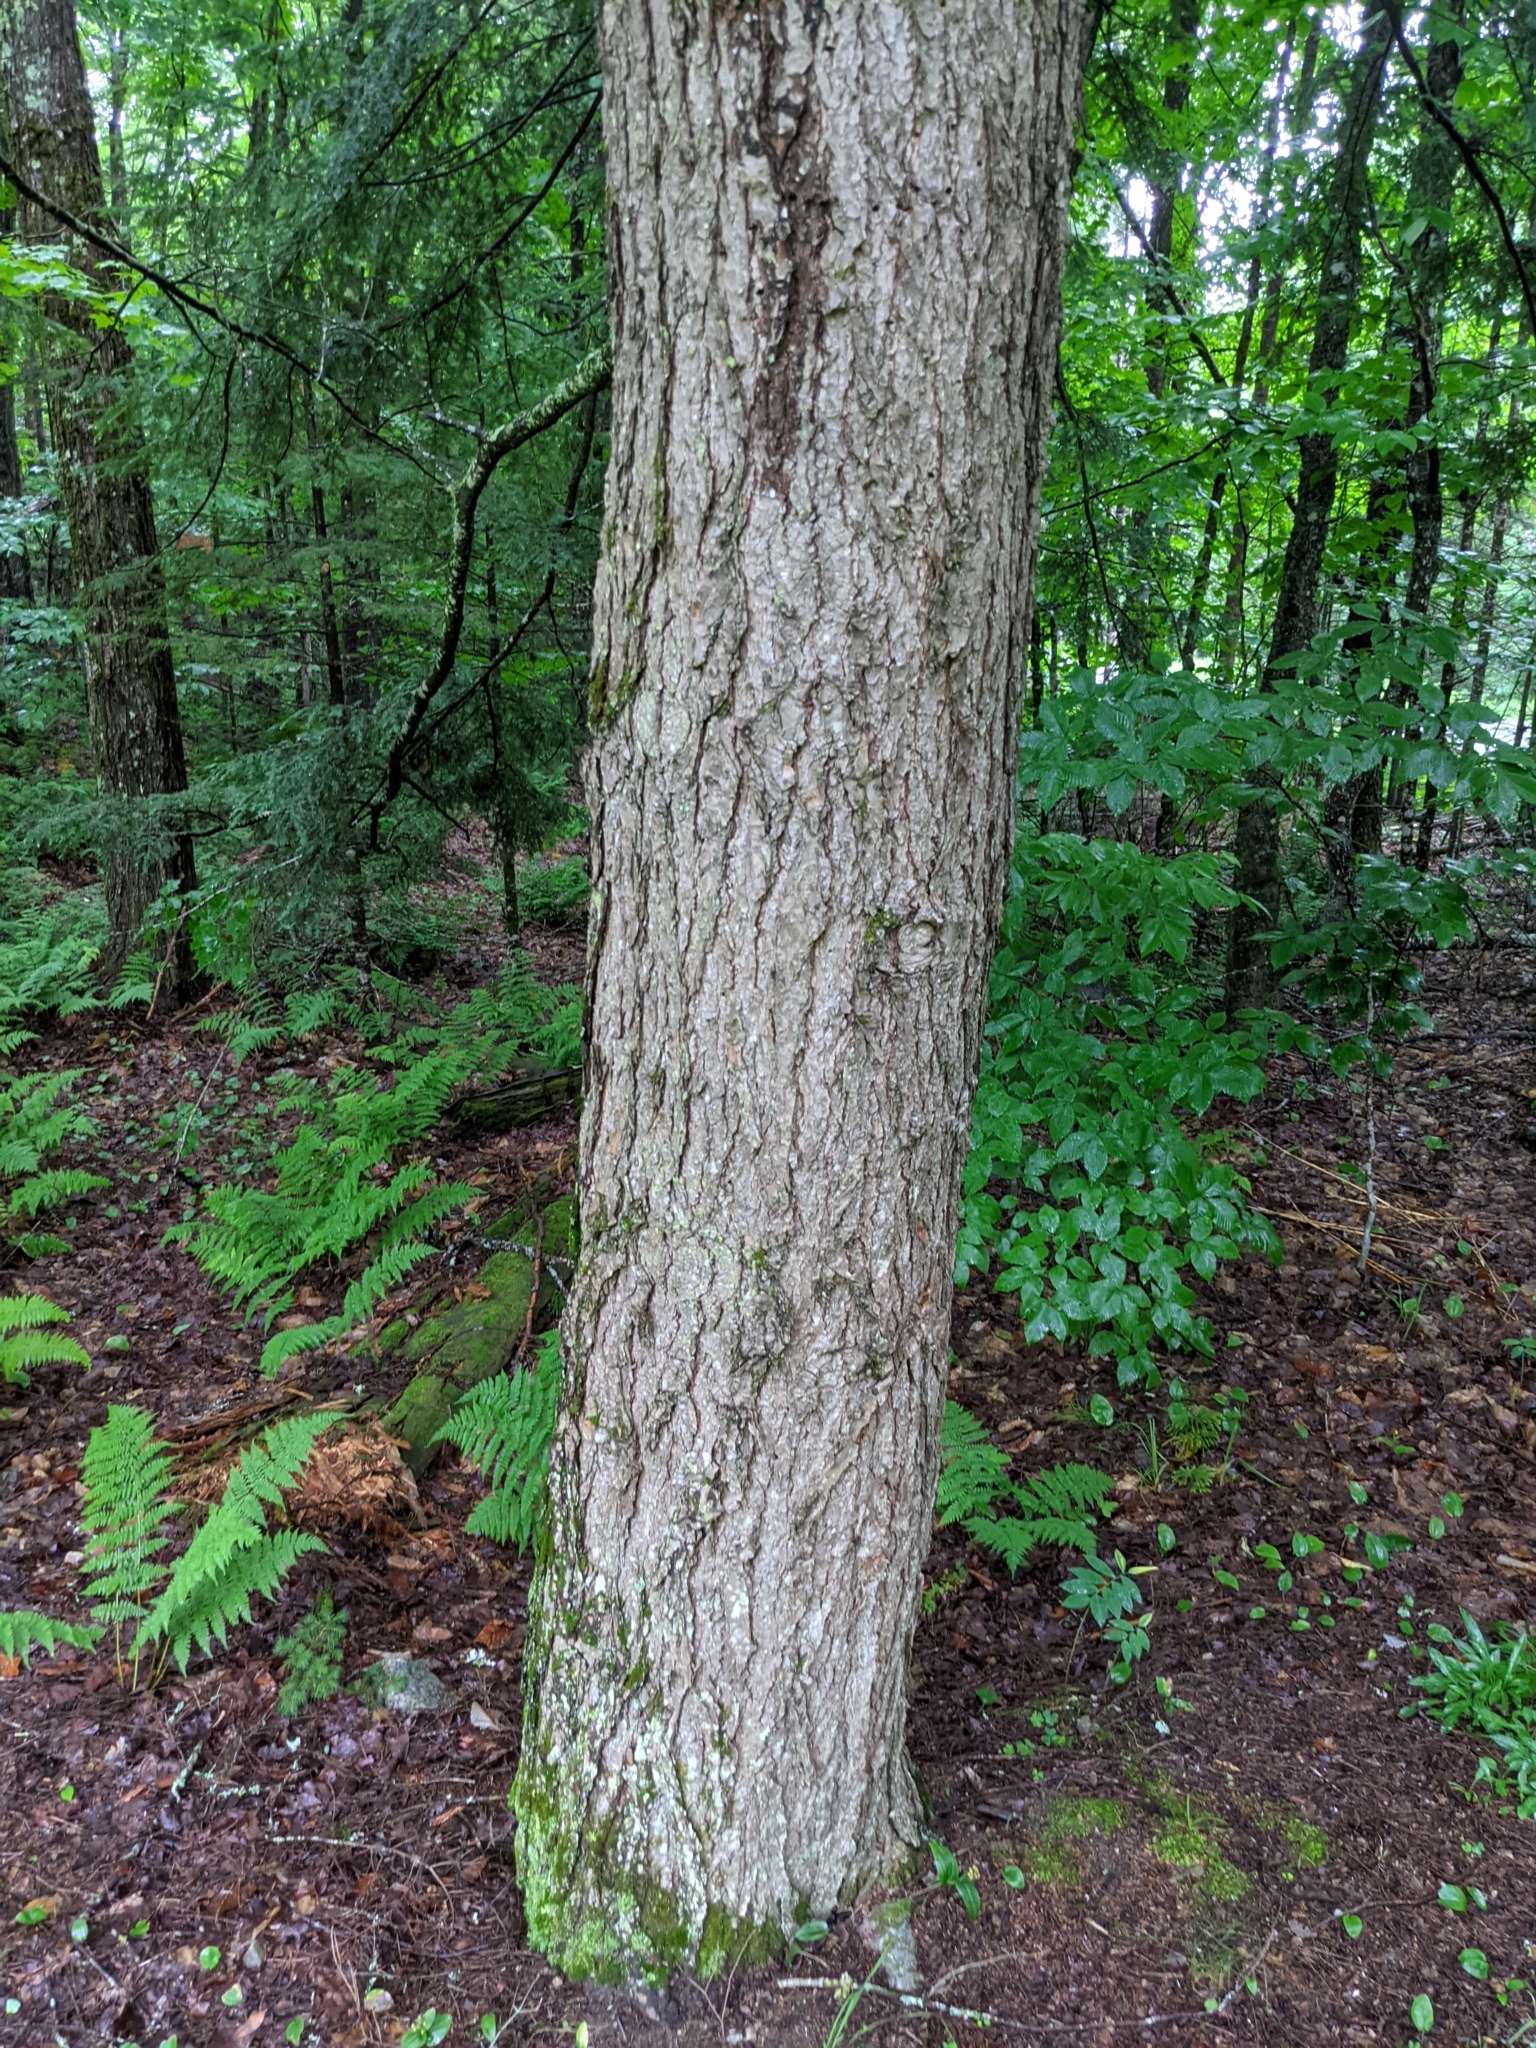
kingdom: Plantae
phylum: Tracheophyta
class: Pinopsida
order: Pinales
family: Pinaceae
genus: Tsuga
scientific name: Tsuga canadensis
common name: Eastern hemlock
